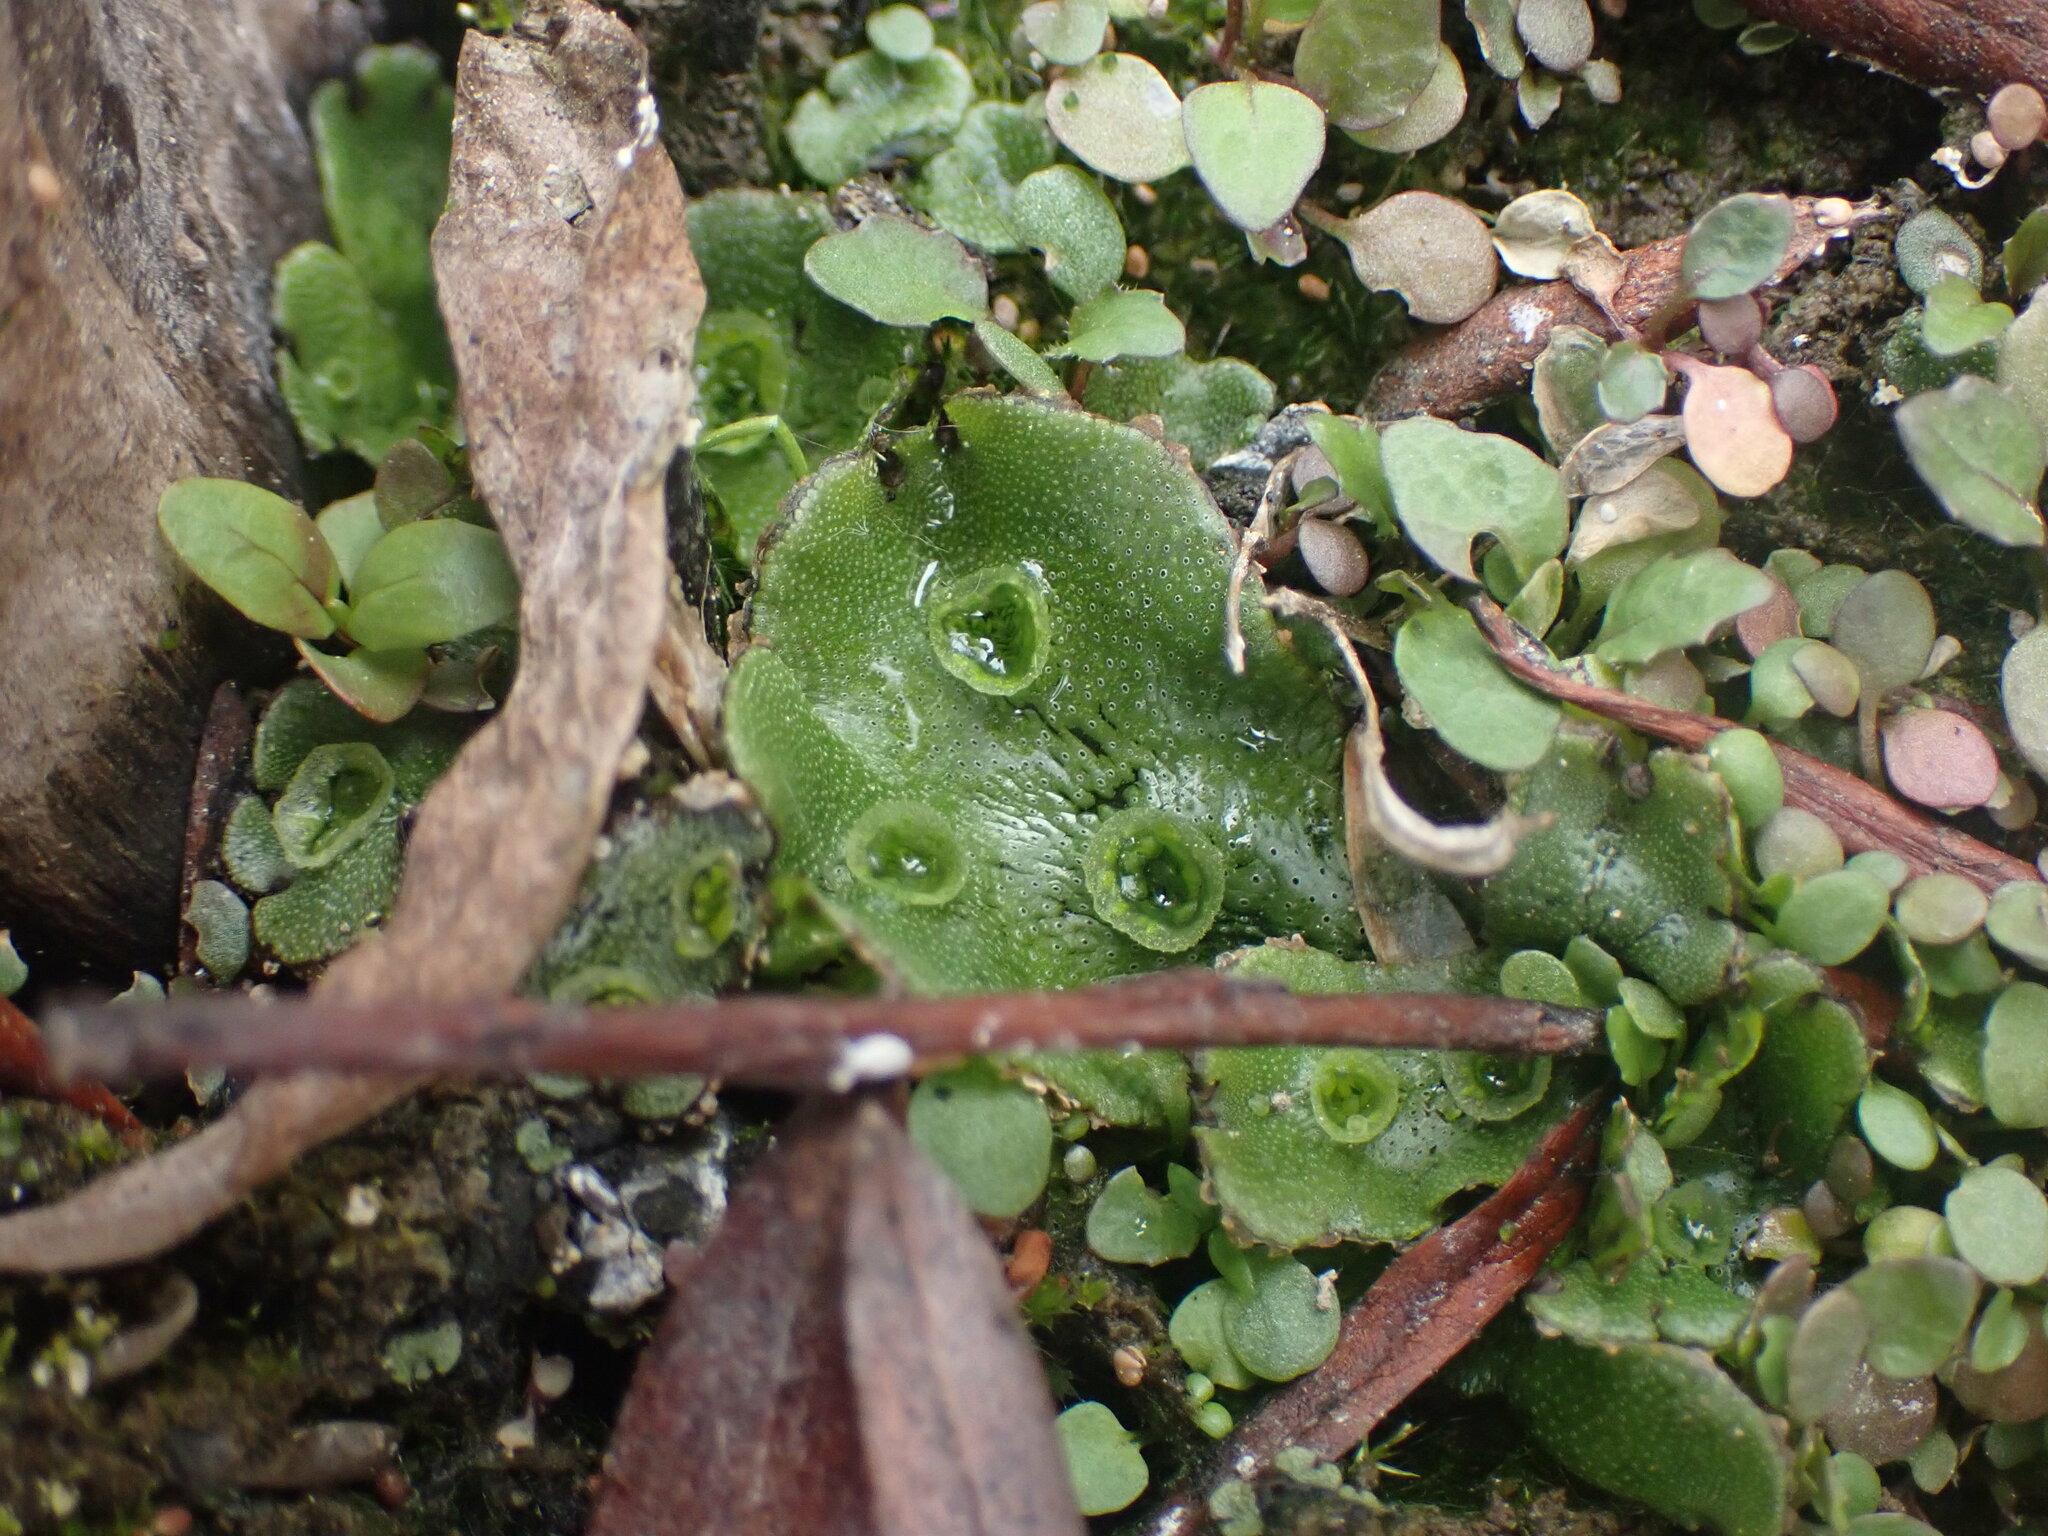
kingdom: Plantae
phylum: Marchantiophyta
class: Marchantiopsida
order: Marchantiales
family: Marchantiaceae
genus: Marchantia
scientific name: Marchantia polymorpha
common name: Common liverwort
